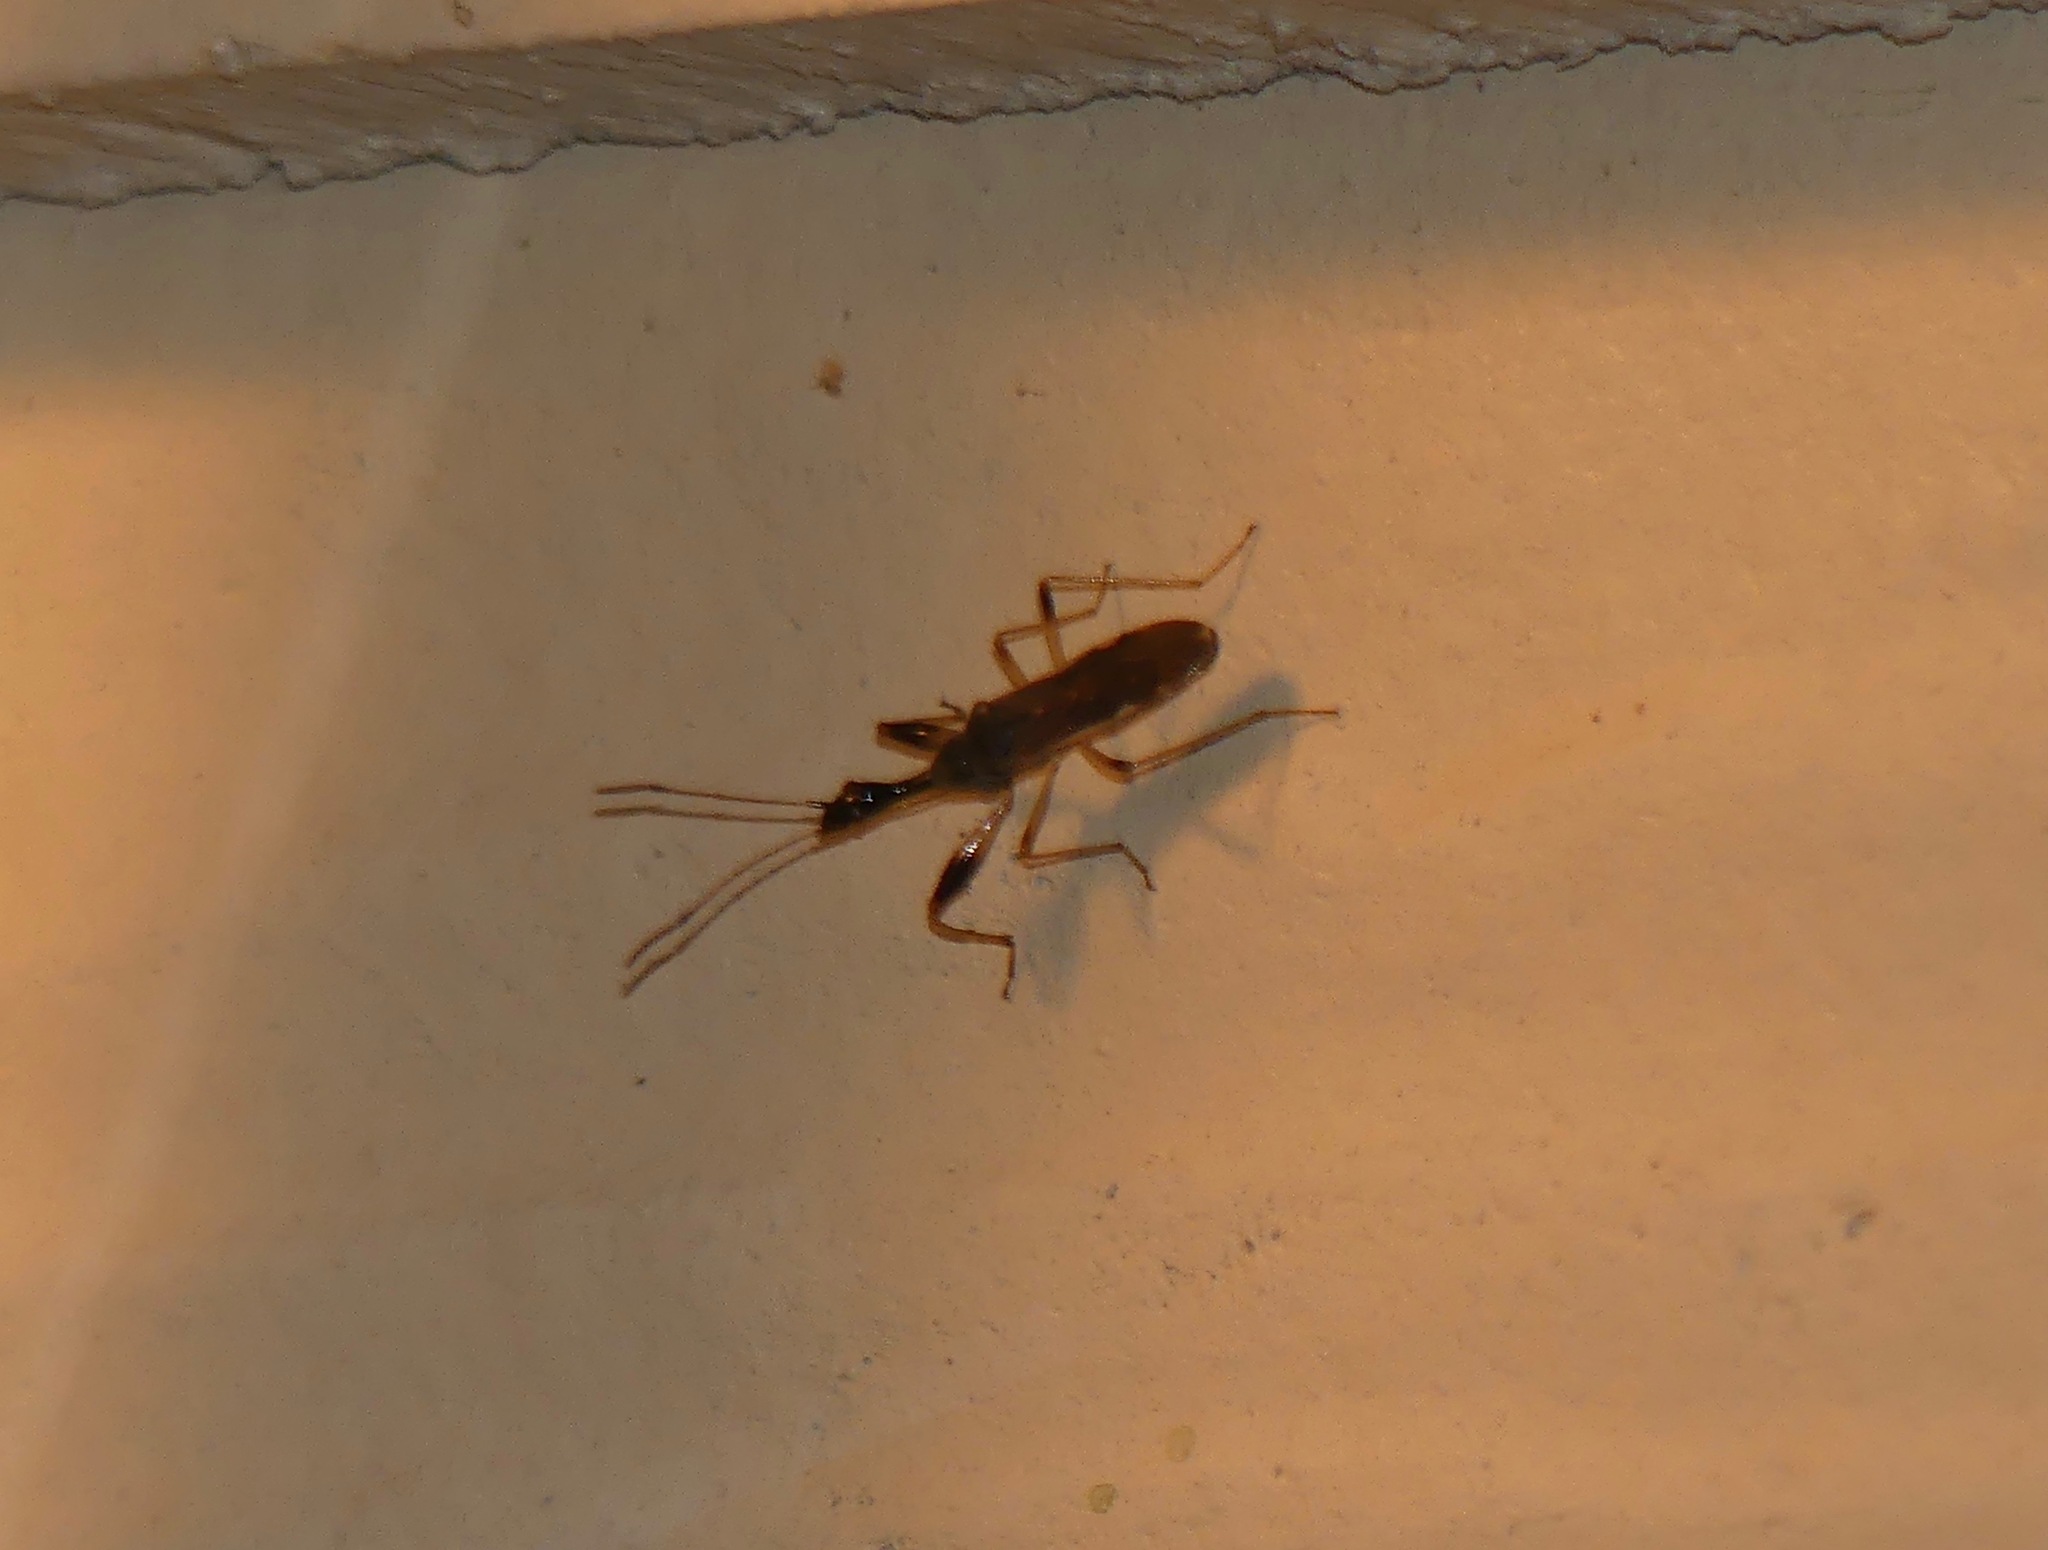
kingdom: Animalia
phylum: Arthropoda
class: Insecta
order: Hemiptera
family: Rhyparochromidae
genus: Myodocha
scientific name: Myodocha serripes
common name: Long-necked seed bug
